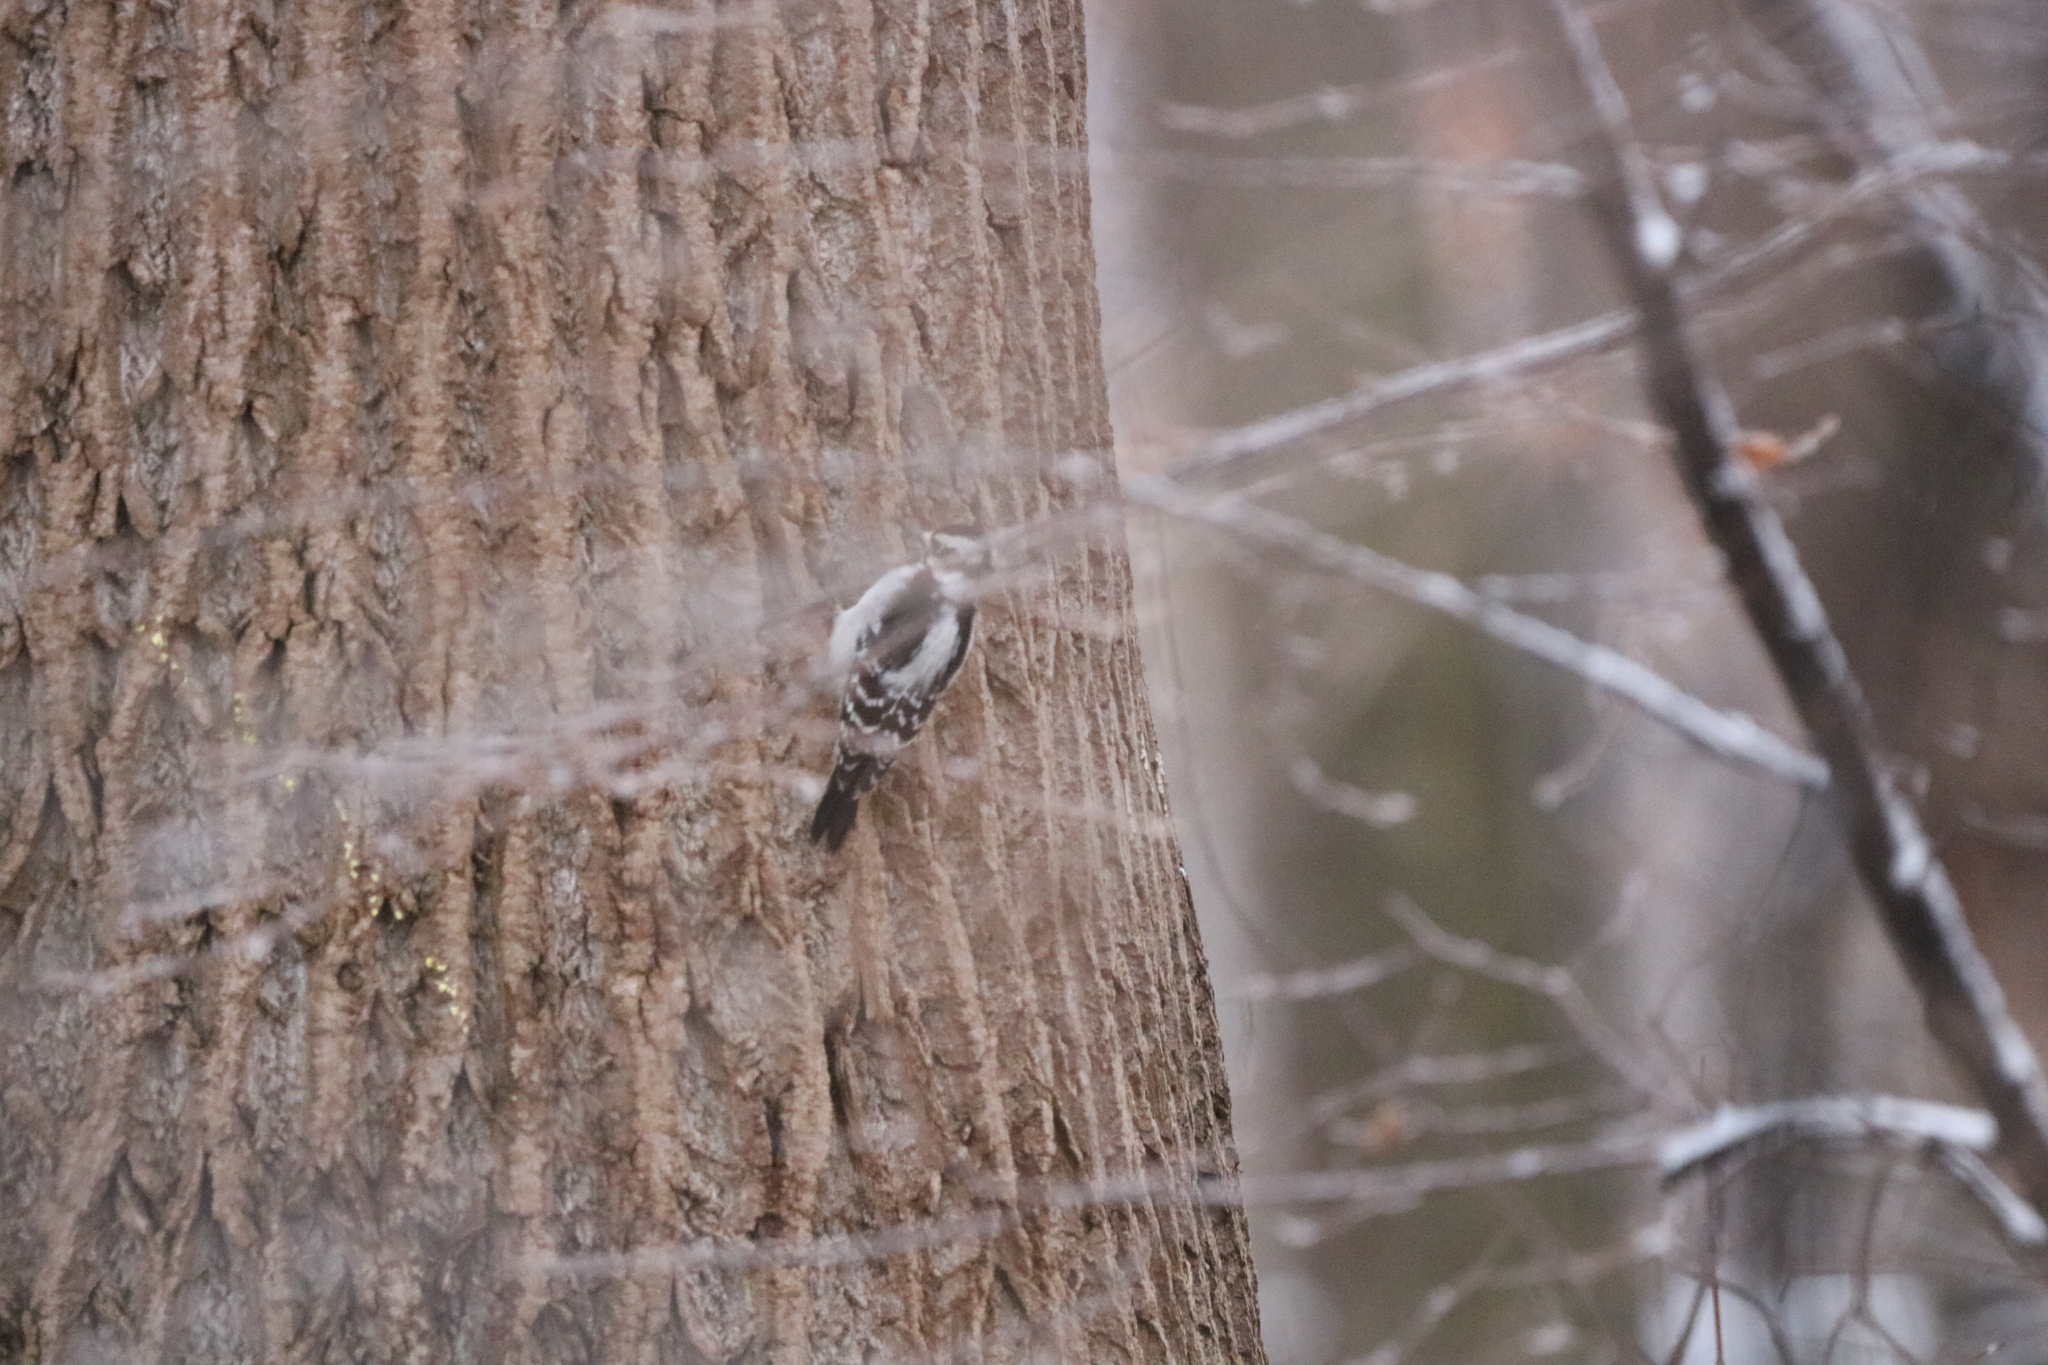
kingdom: Animalia
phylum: Chordata
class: Aves
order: Piciformes
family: Picidae
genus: Dryobates
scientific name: Dryobates pubescens
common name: Downy woodpecker
